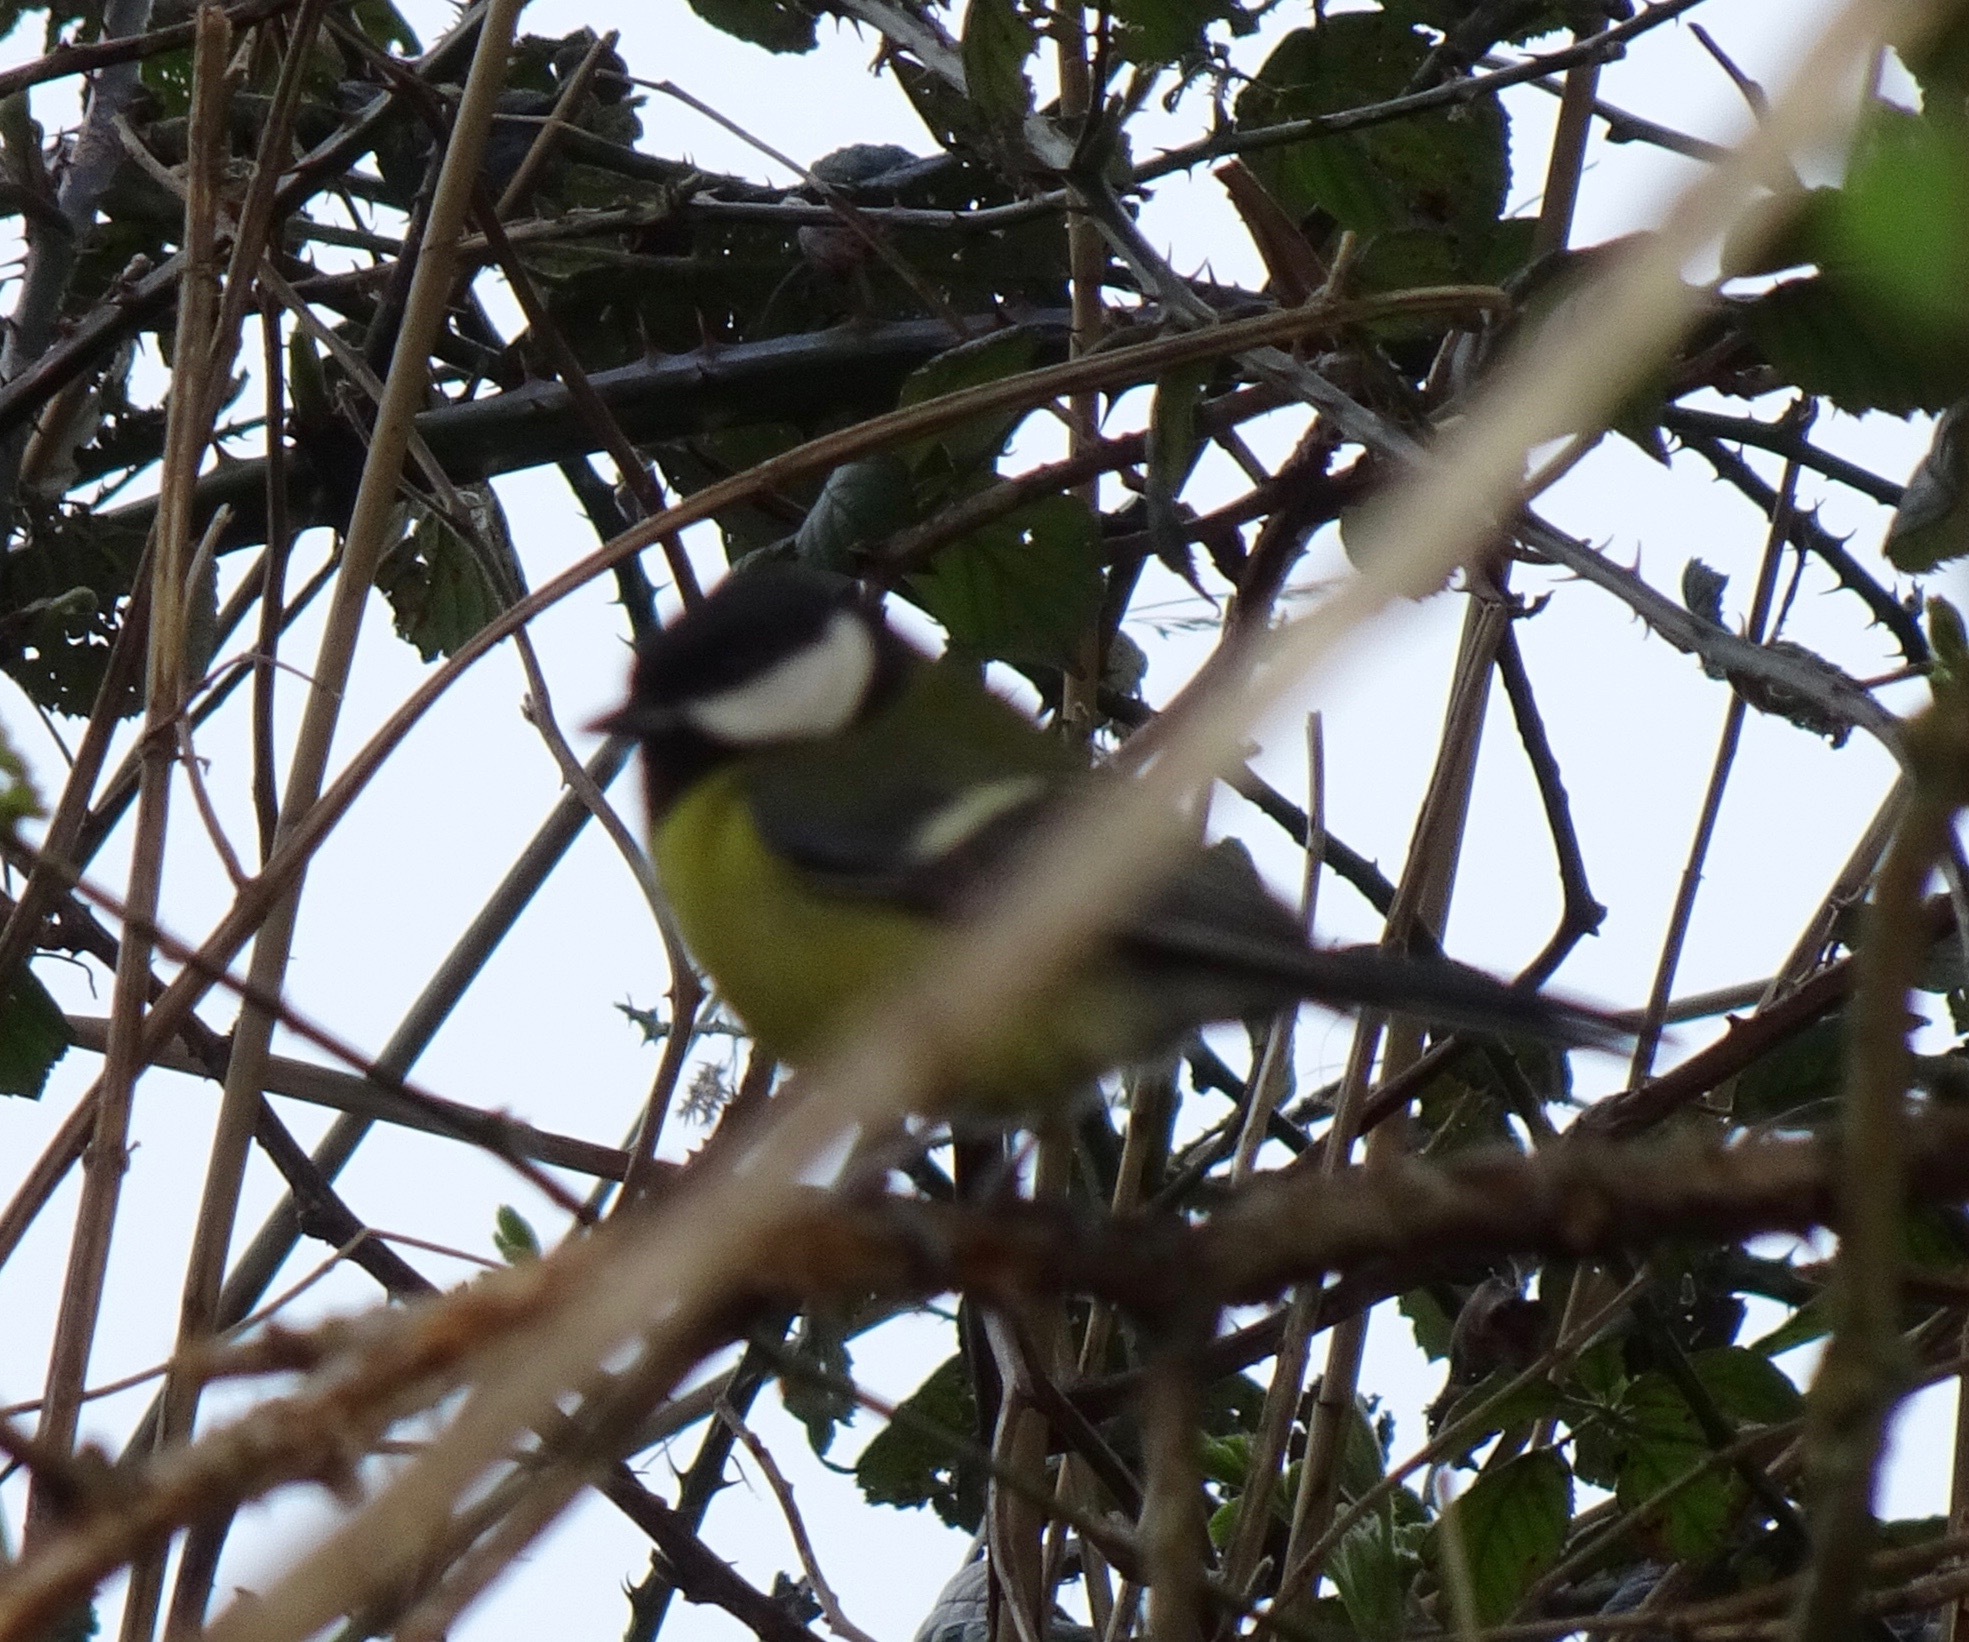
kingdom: Animalia
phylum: Chordata
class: Aves
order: Passeriformes
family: Paridae
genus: Parus
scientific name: Parus major
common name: Great tit
